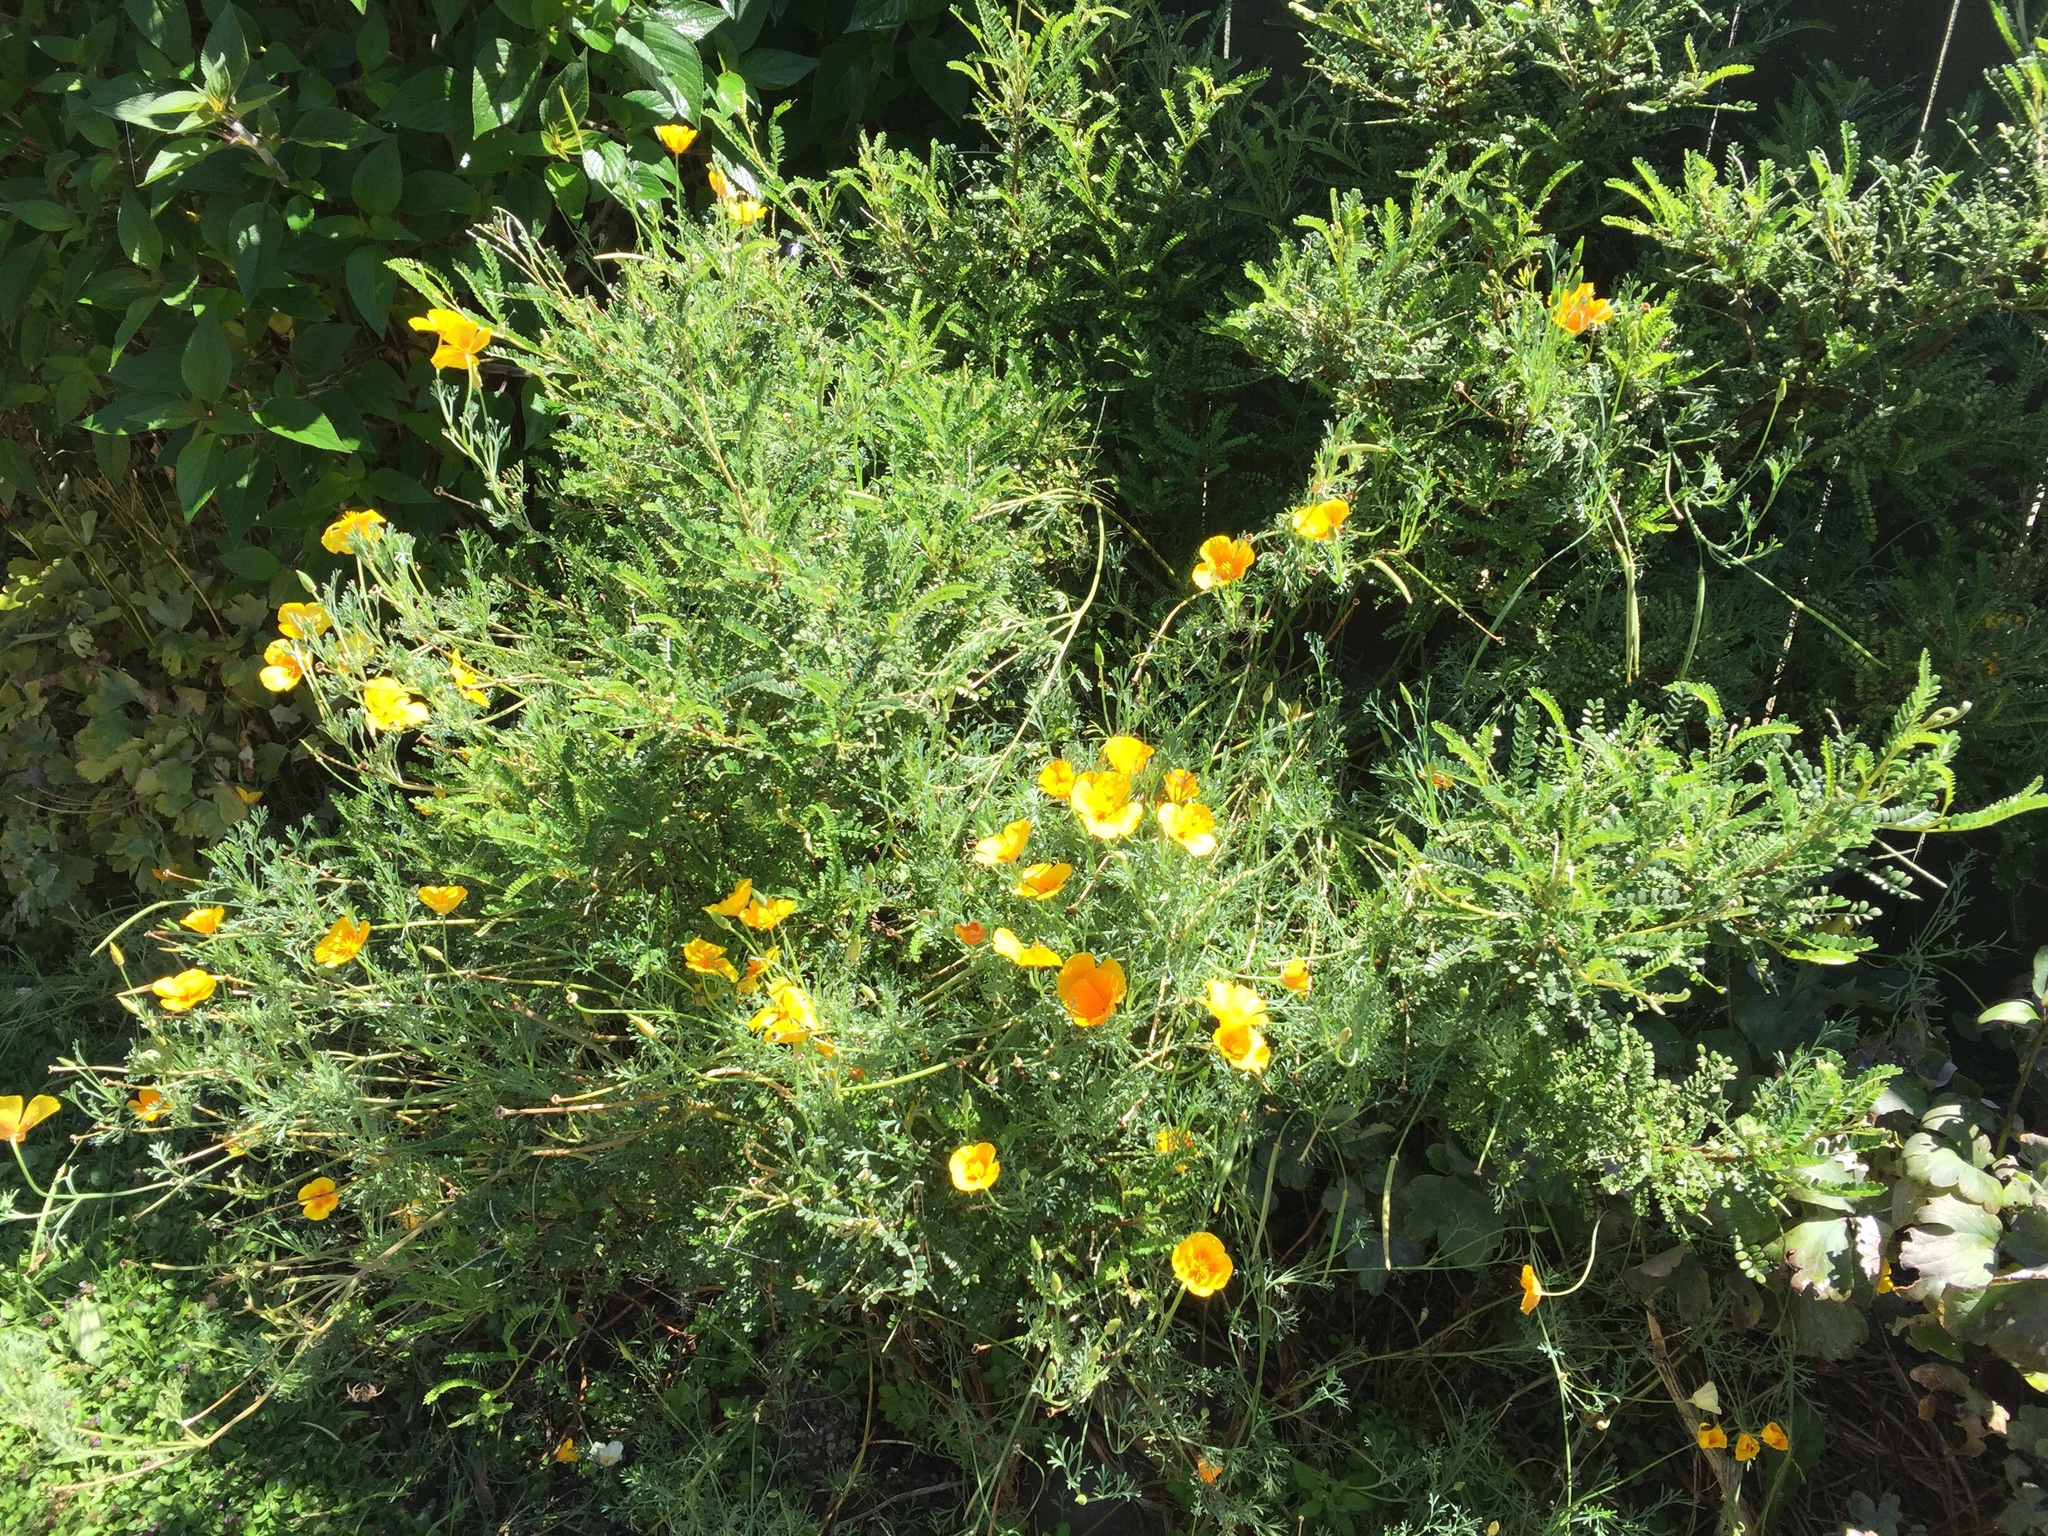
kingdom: Plantae
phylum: Tracheophyta
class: Magnoliopsida
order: Ranunculales
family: Papaveraceae
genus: Eschscholzia
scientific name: Eschscholzia californica
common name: California poppy
